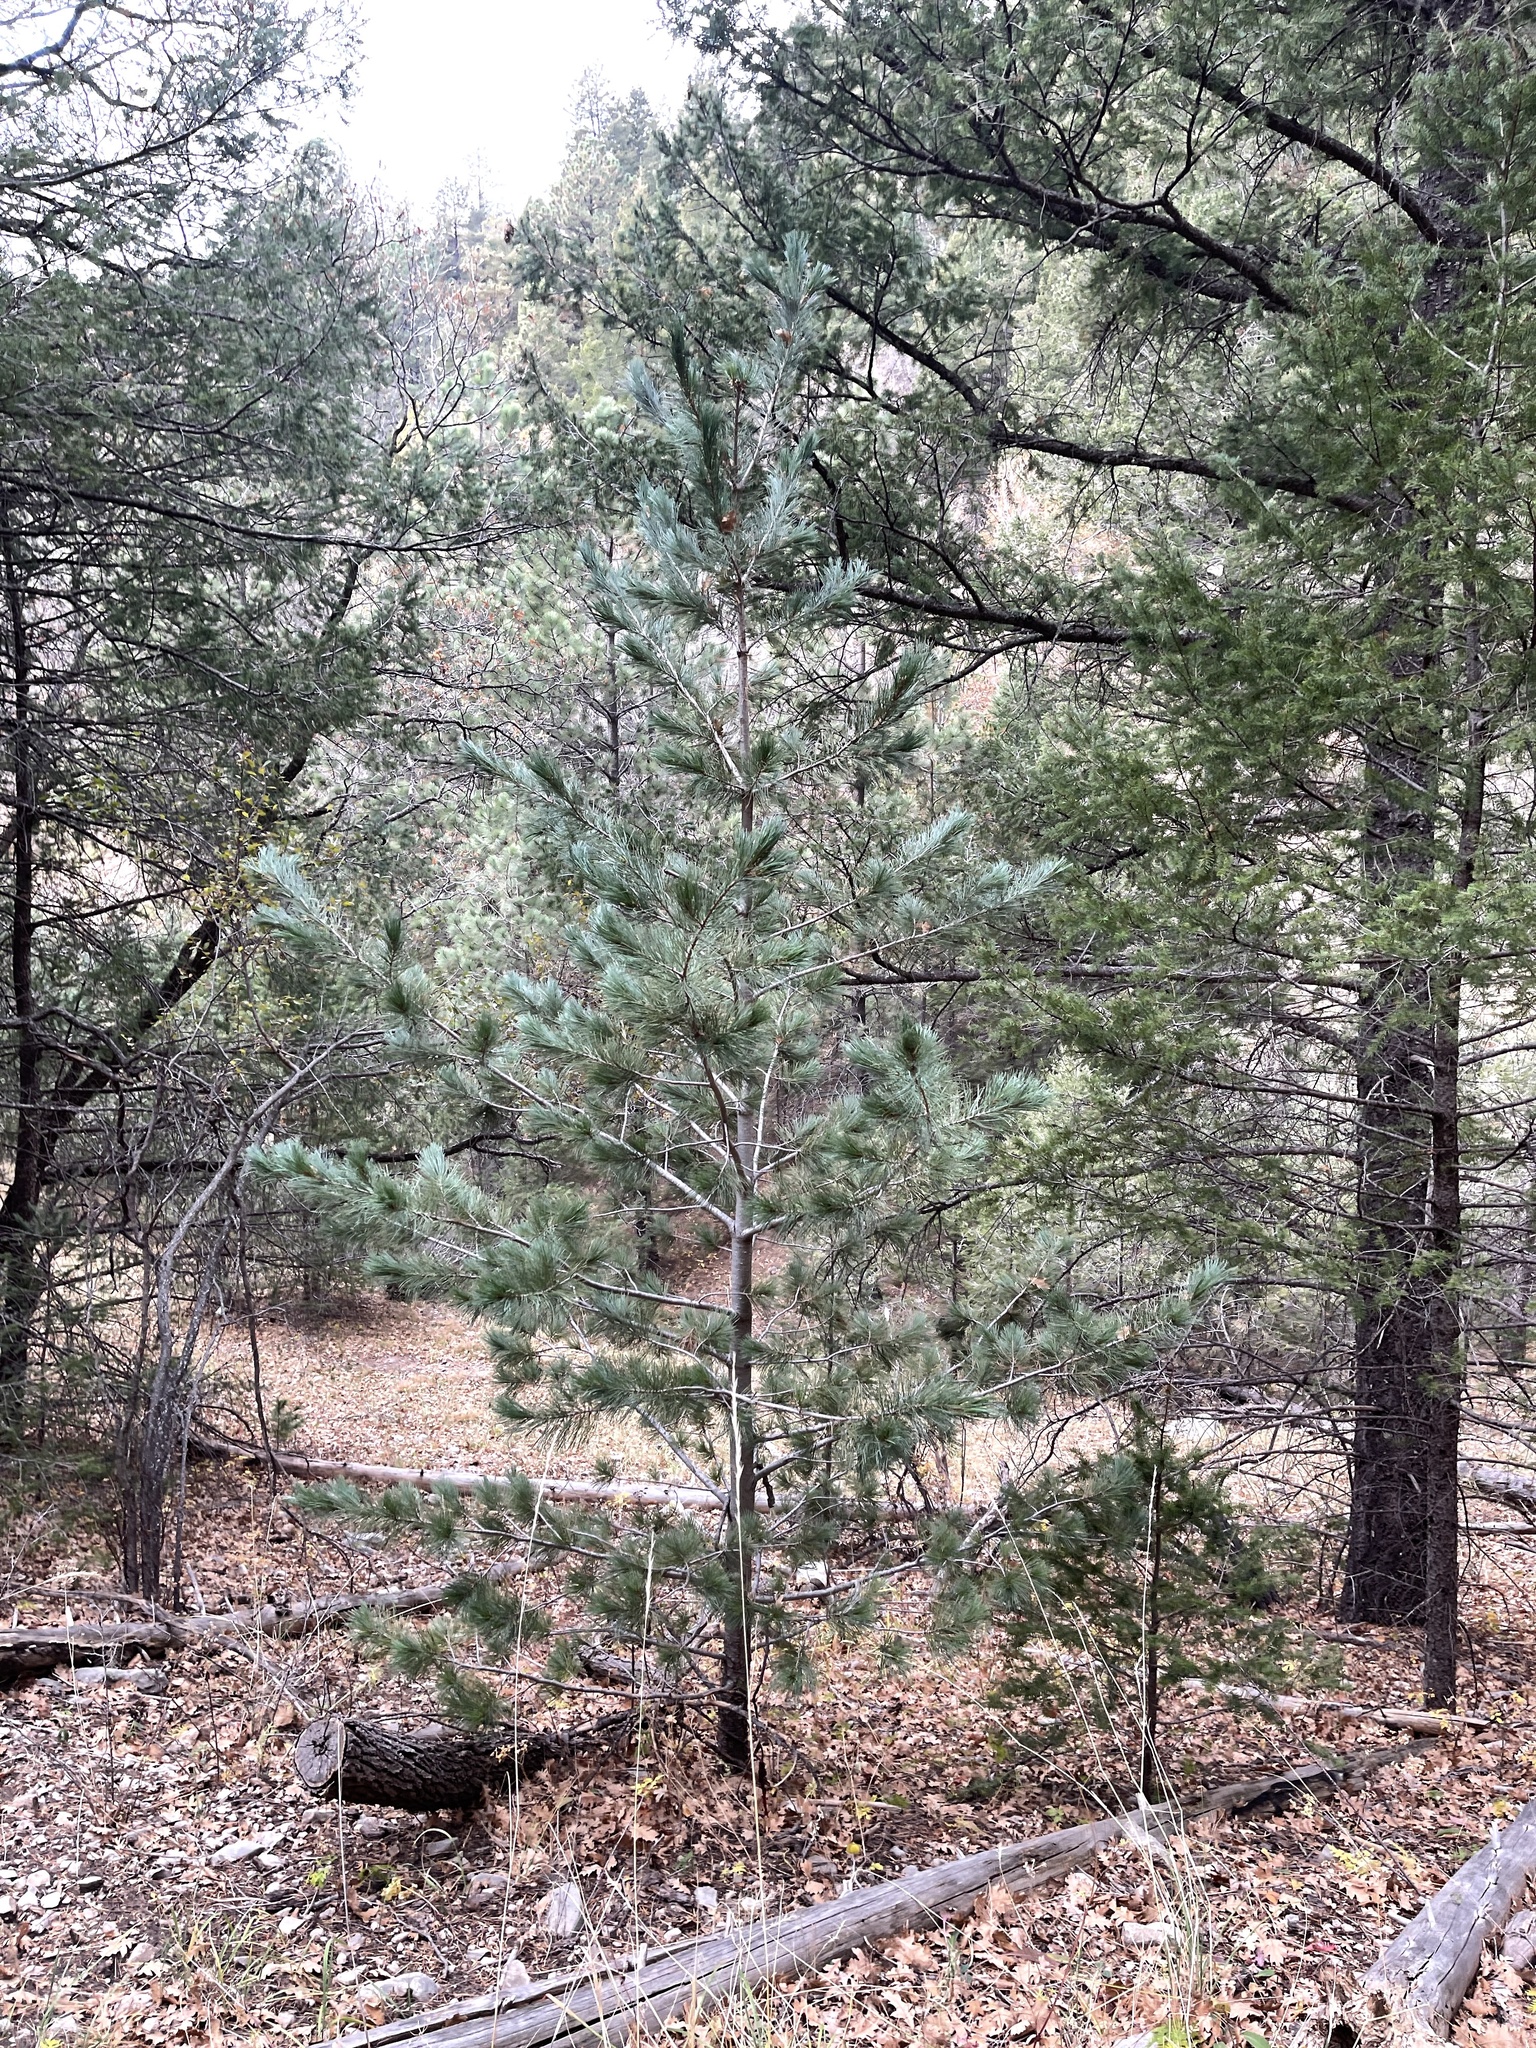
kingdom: Plantae
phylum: Tracheophyta
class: Pinopsida
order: Pinales
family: Pinaceae
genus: Pinus
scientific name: Pinus strobiformis
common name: Southwestern white pine
